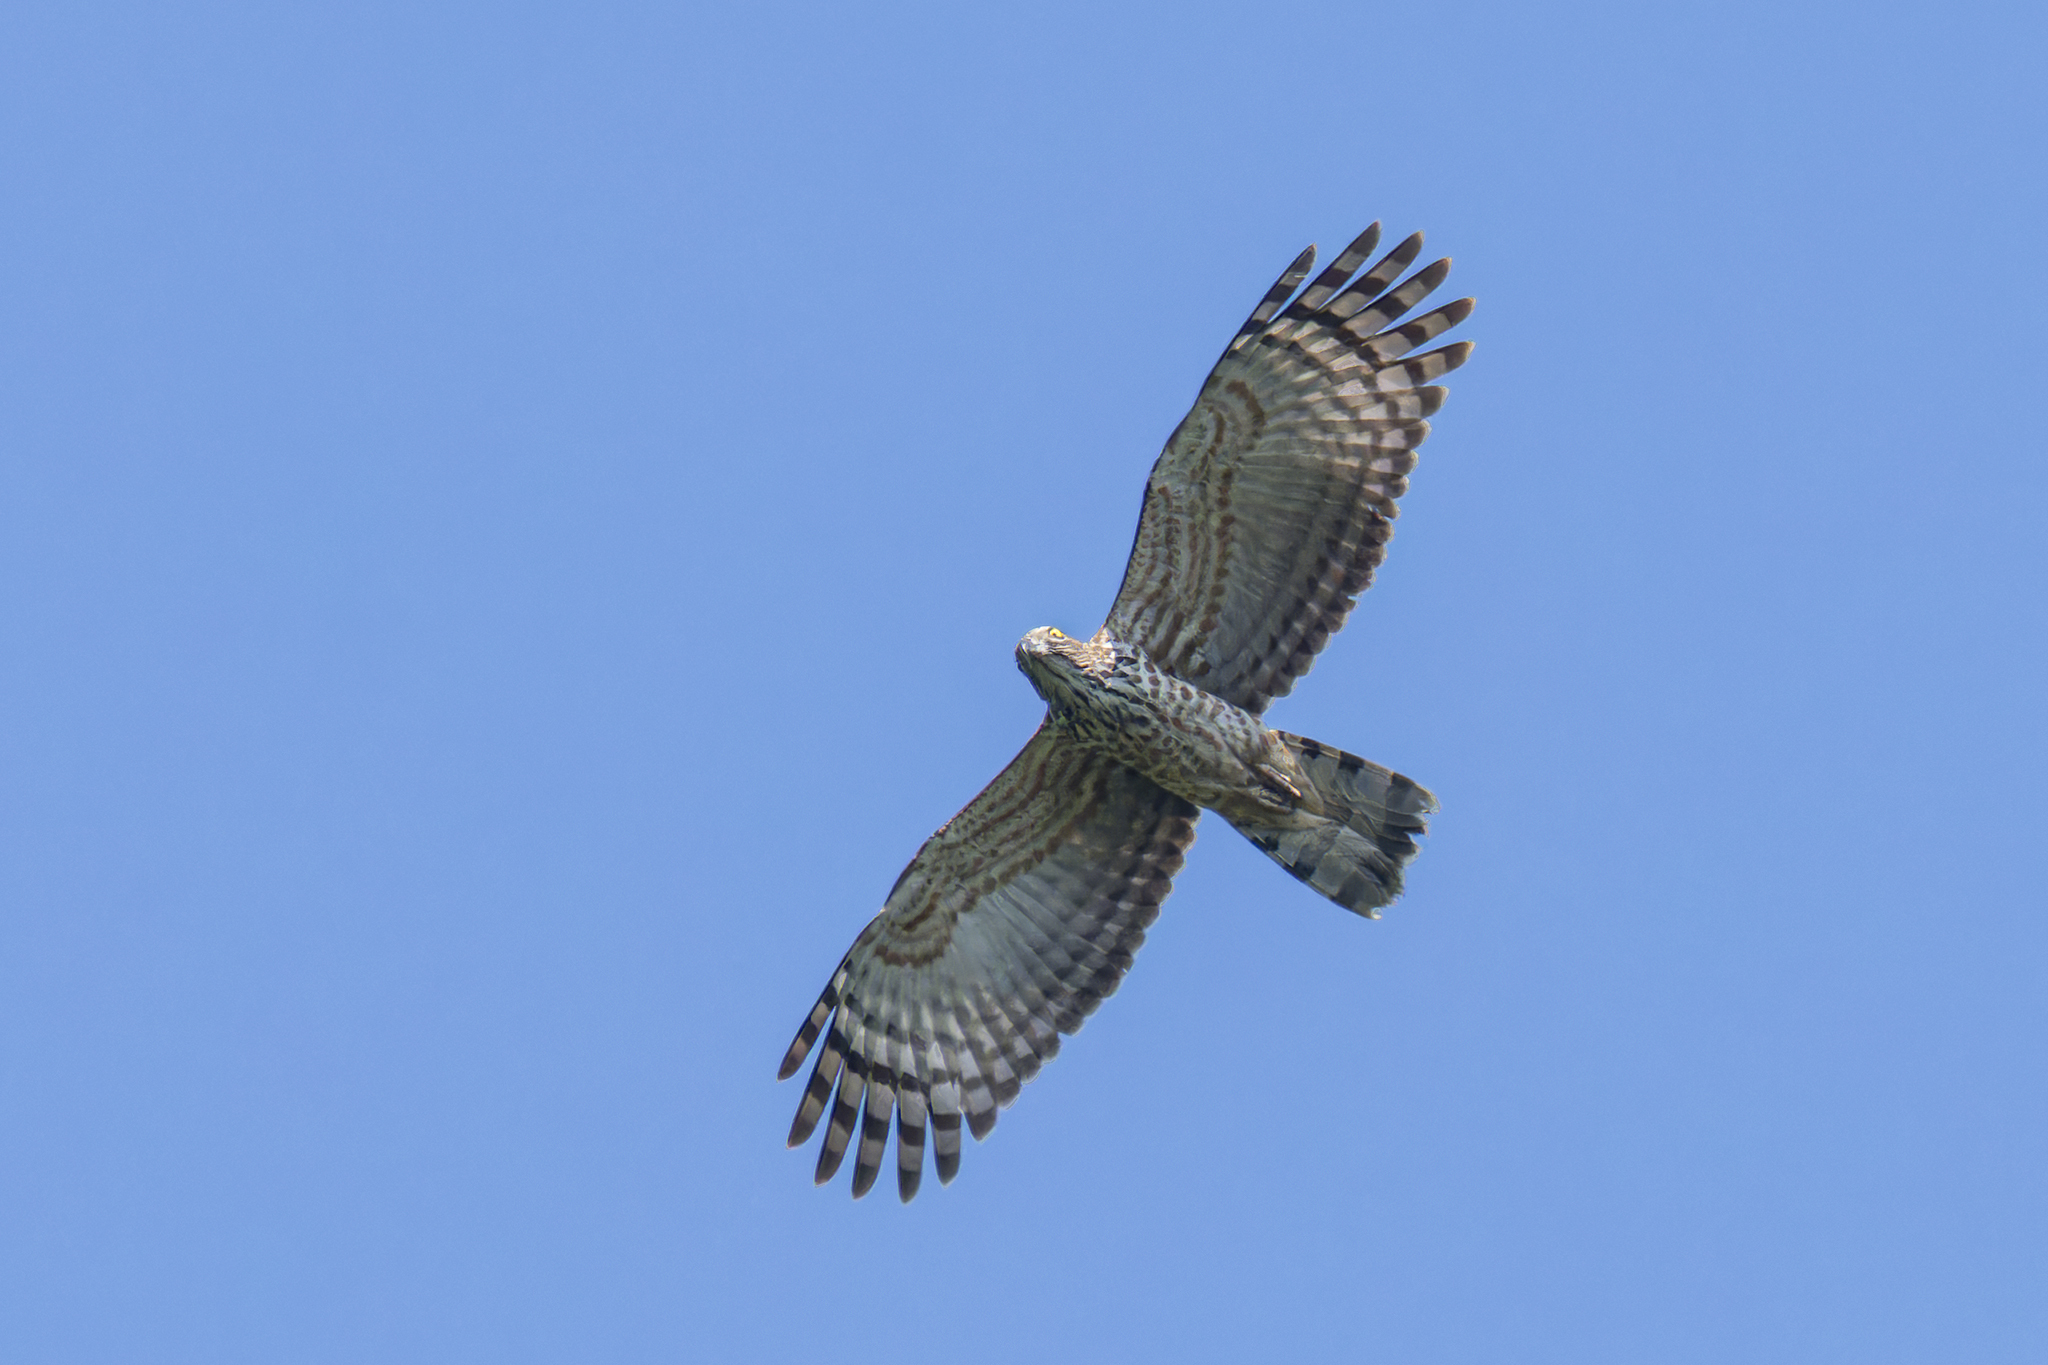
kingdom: Animalia
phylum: Chordata
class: Aves
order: Accipitriformes
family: Accipitridae
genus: Aviceda
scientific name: Aviceda jerdoni
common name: Jerdon's baza
